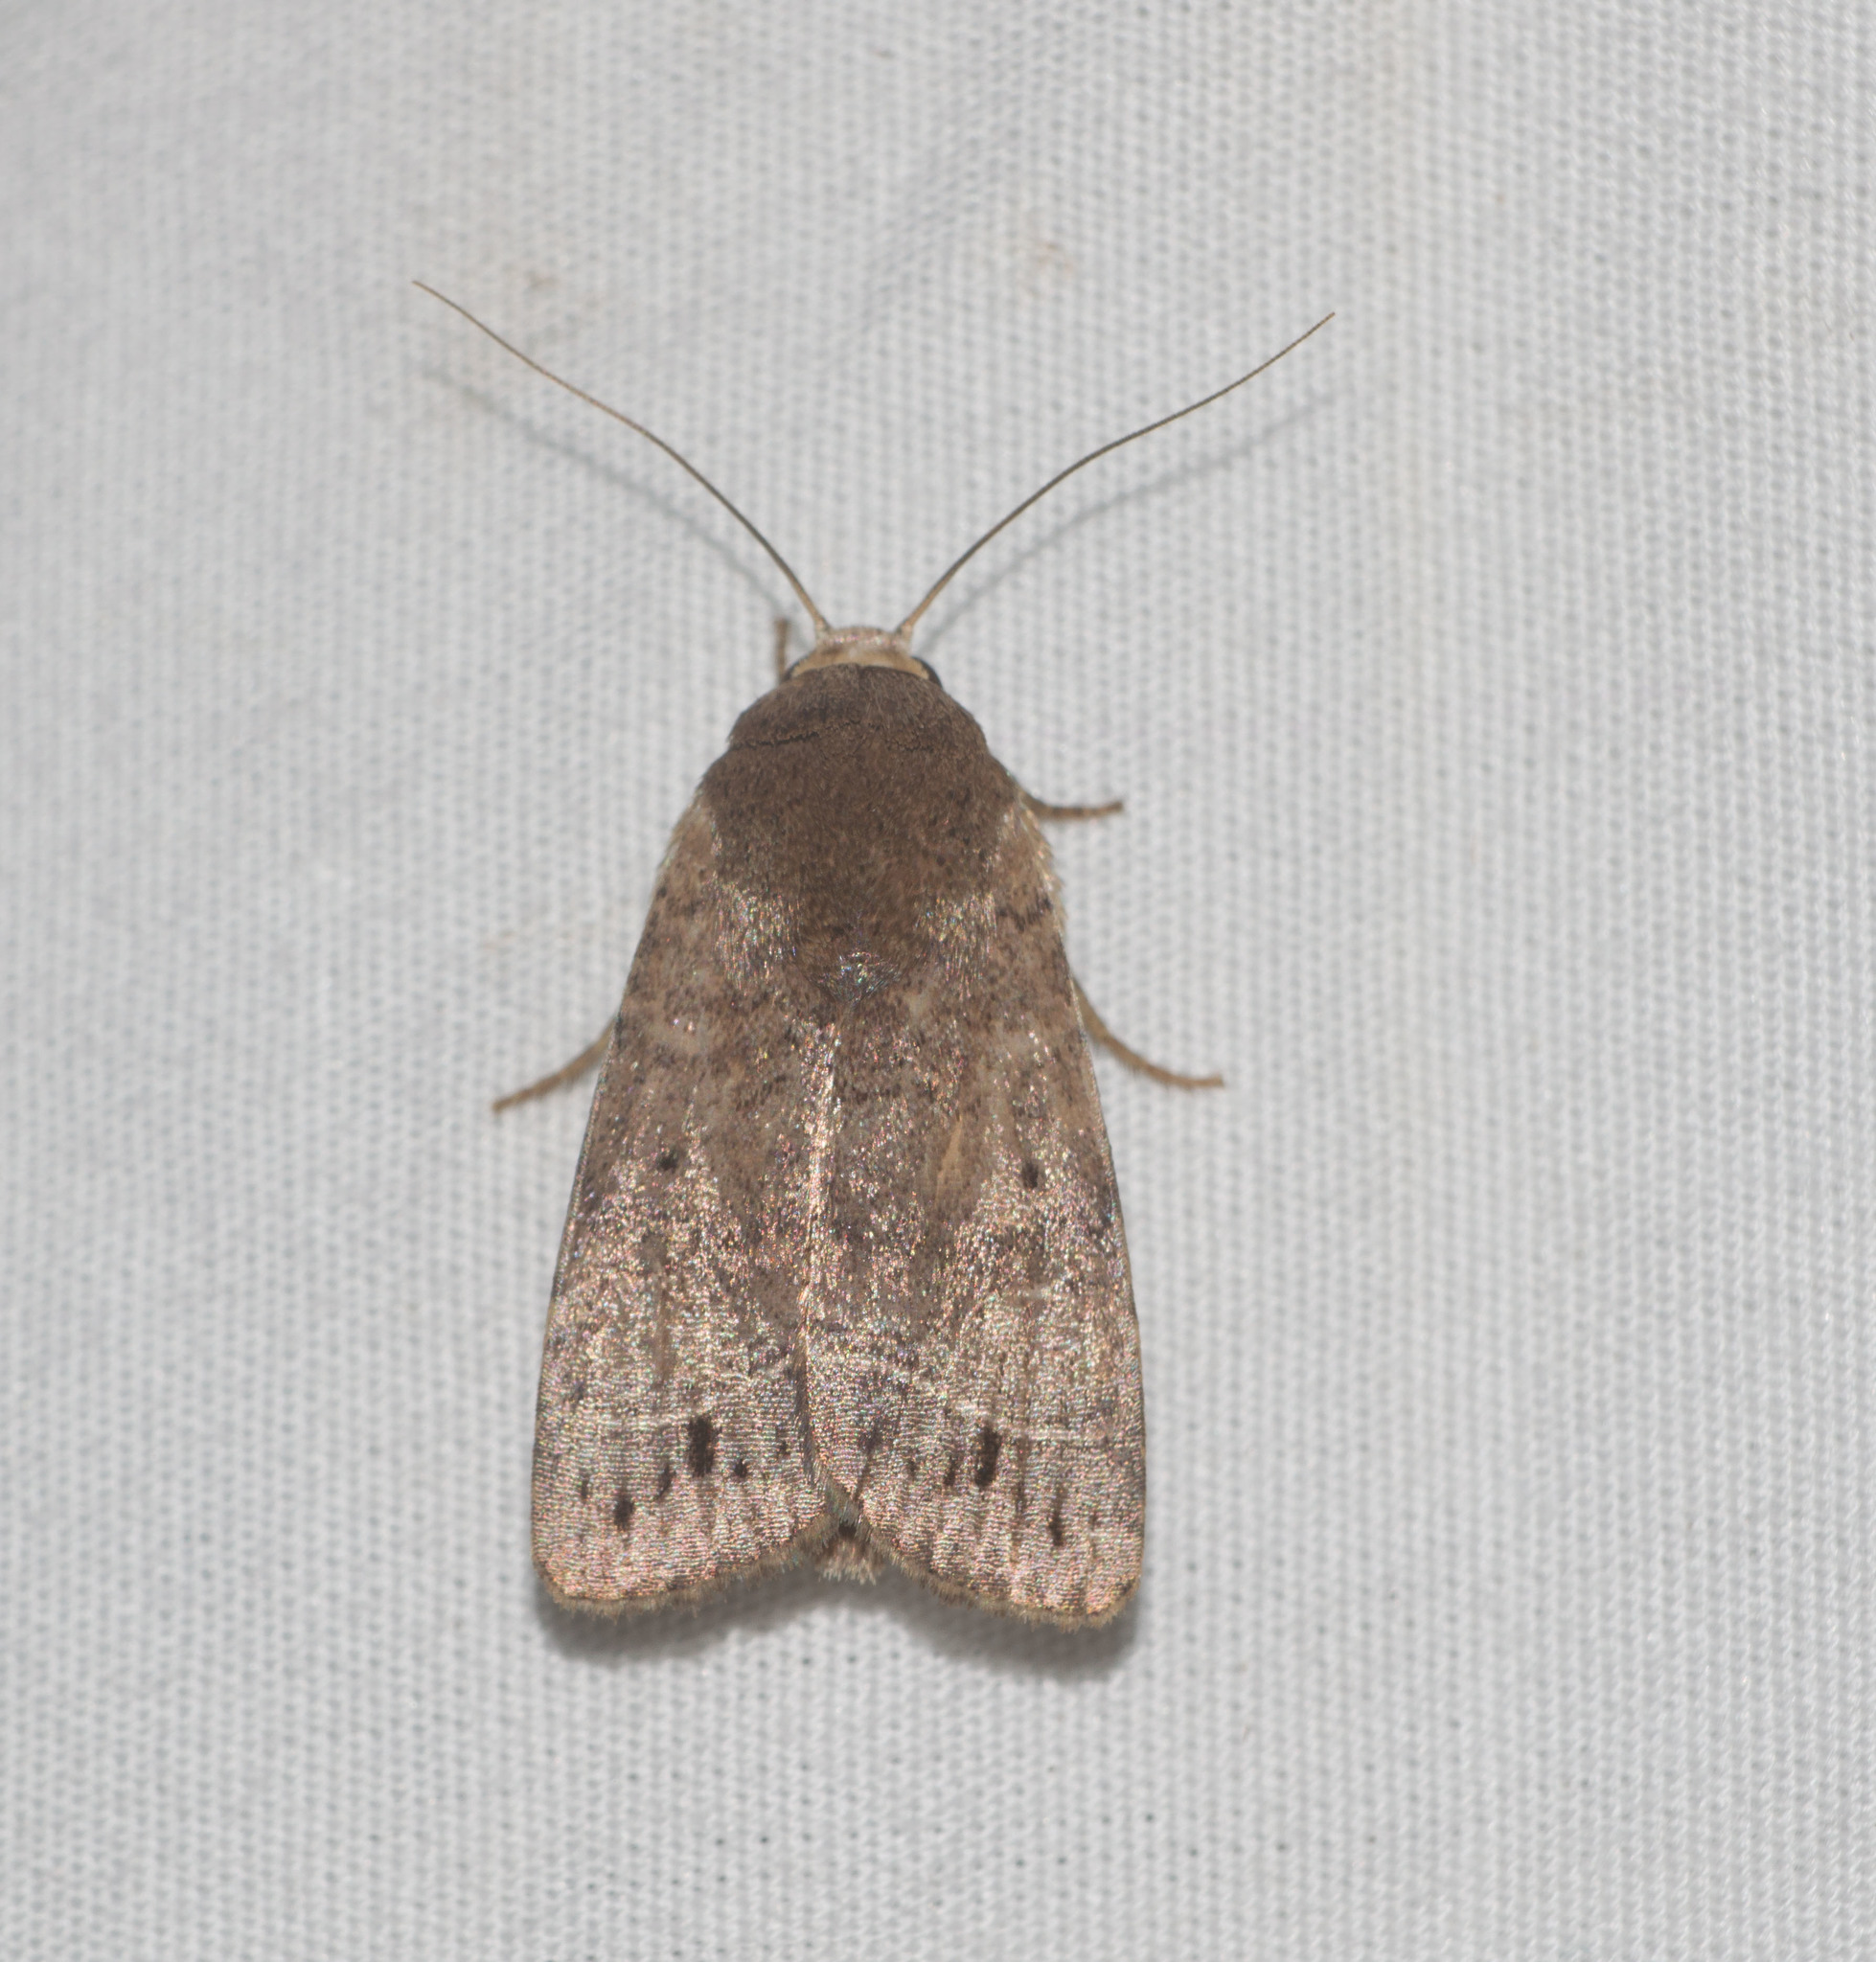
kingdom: Animalia
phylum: Arthropoda
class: Insecta
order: Lepidoptera
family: Noctuidae
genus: Athetis
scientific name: Athetis thoracica
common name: Cutworm
